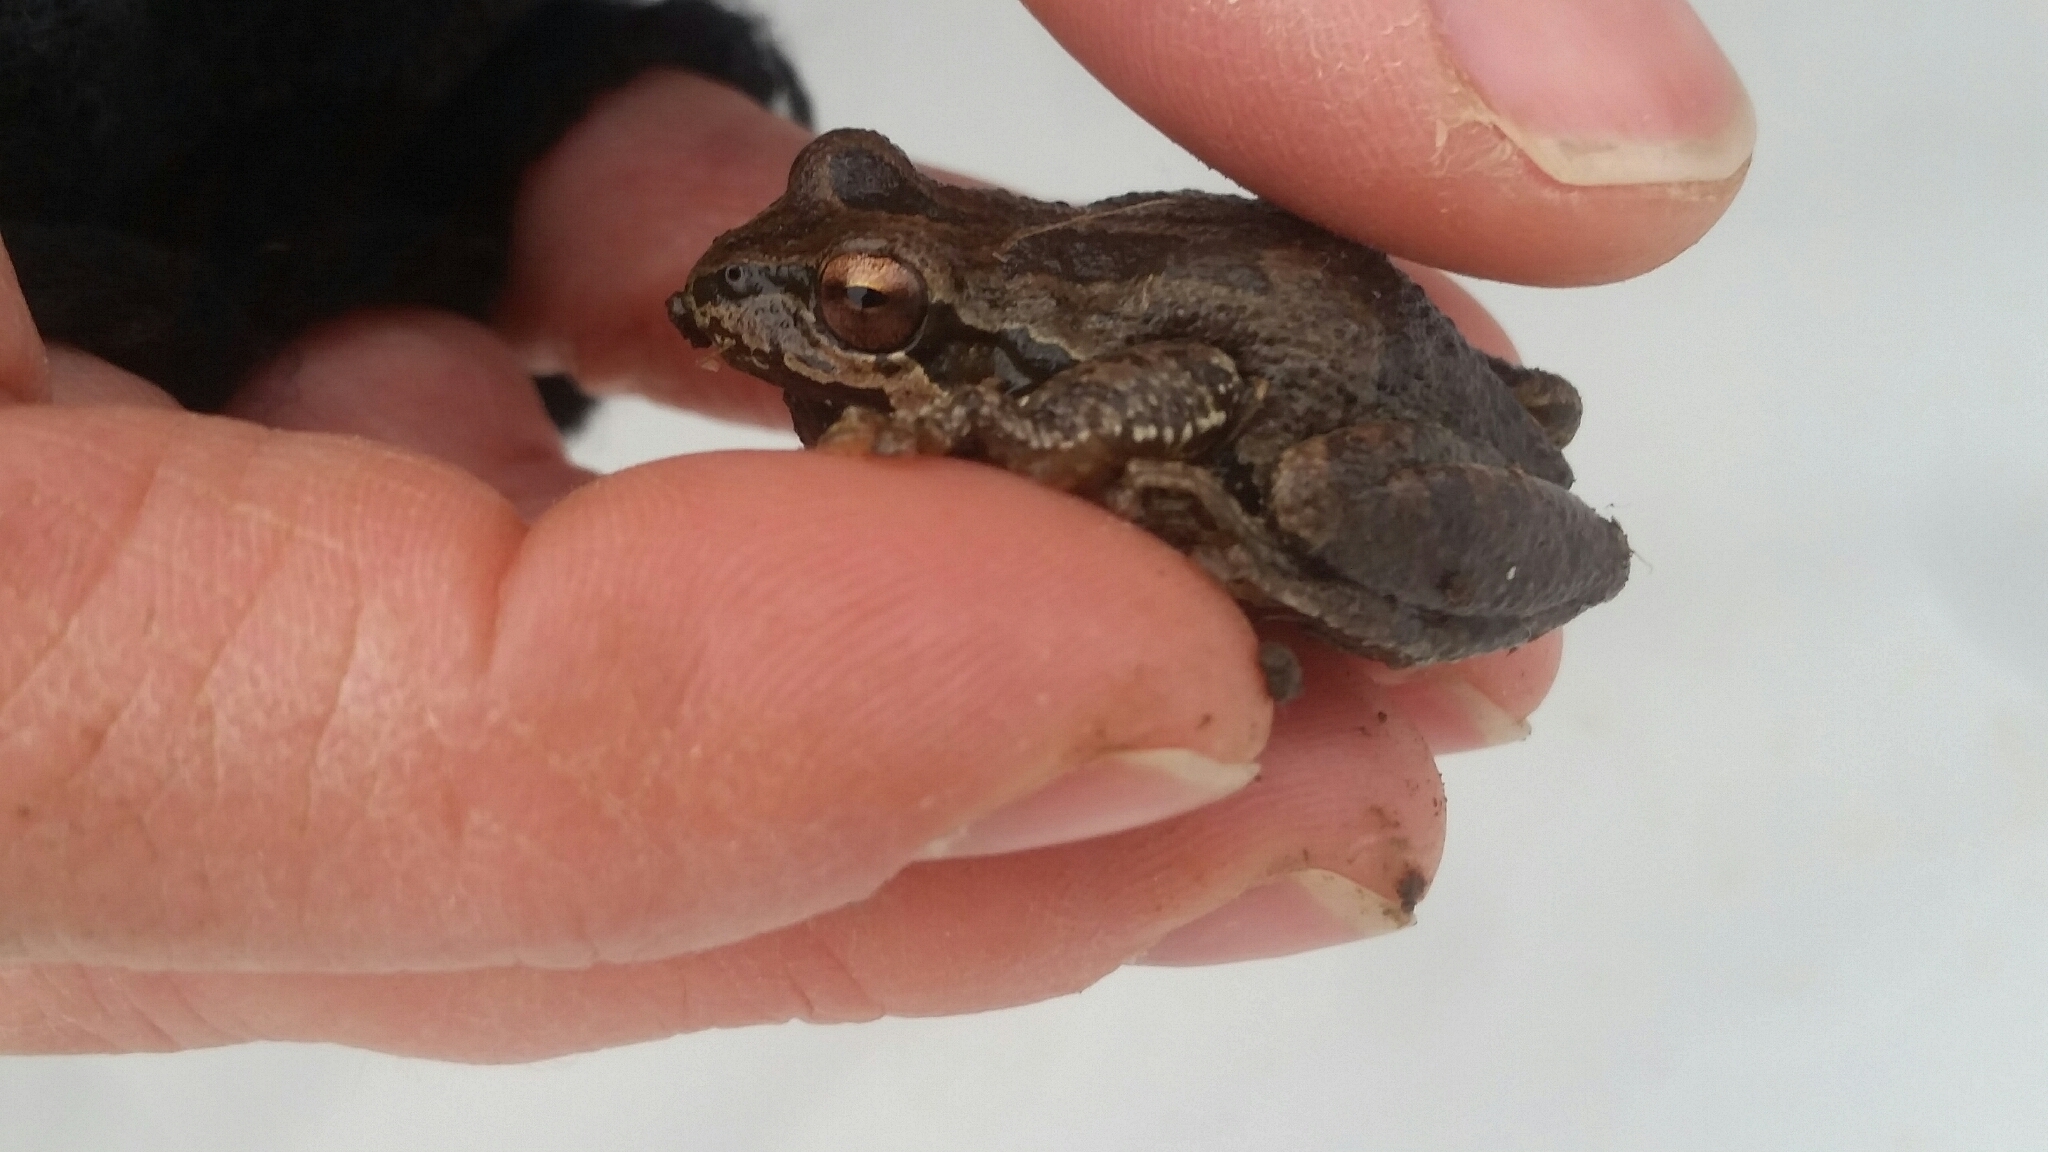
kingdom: Animalia
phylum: Chordata
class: Amphibia
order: Anura
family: Hylidae
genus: Pseudacris
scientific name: Pseudacris regilla
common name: Pacific chorus frog
